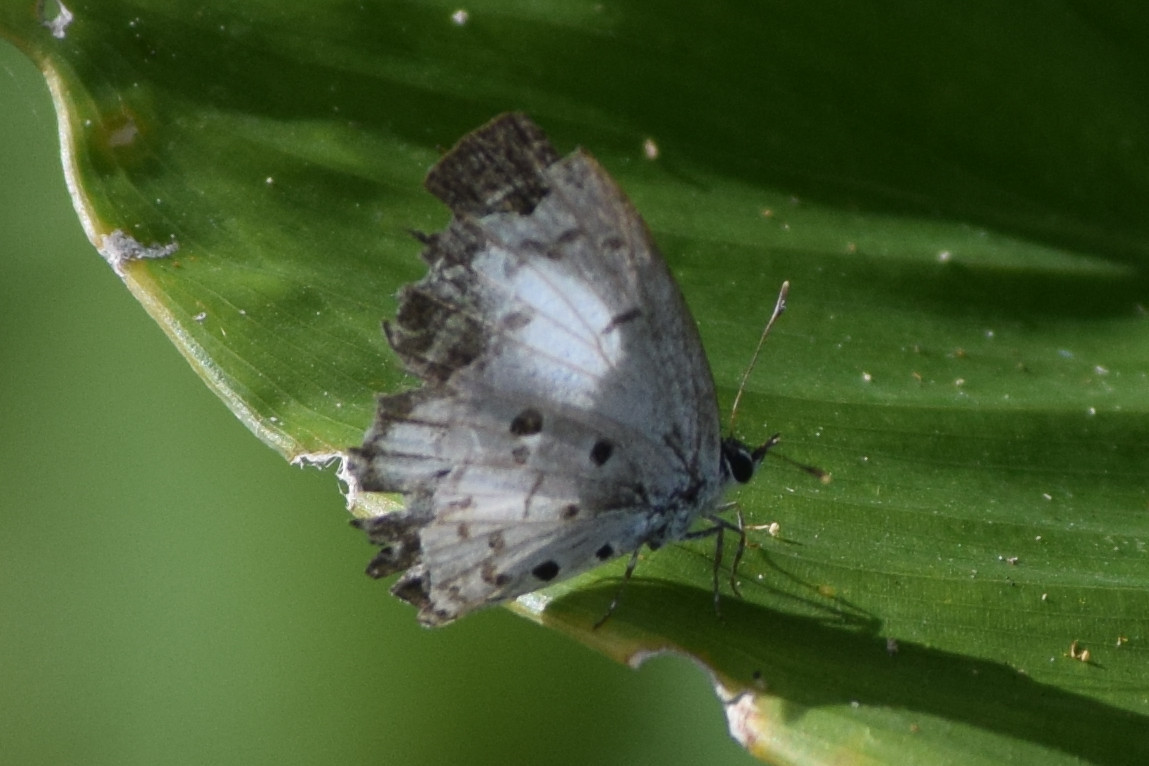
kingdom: Animalia
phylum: Arthropoda
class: Insecta
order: Lepidoptera
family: Lycaenidae
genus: Acytolepis
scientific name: Acytolepis puspa
